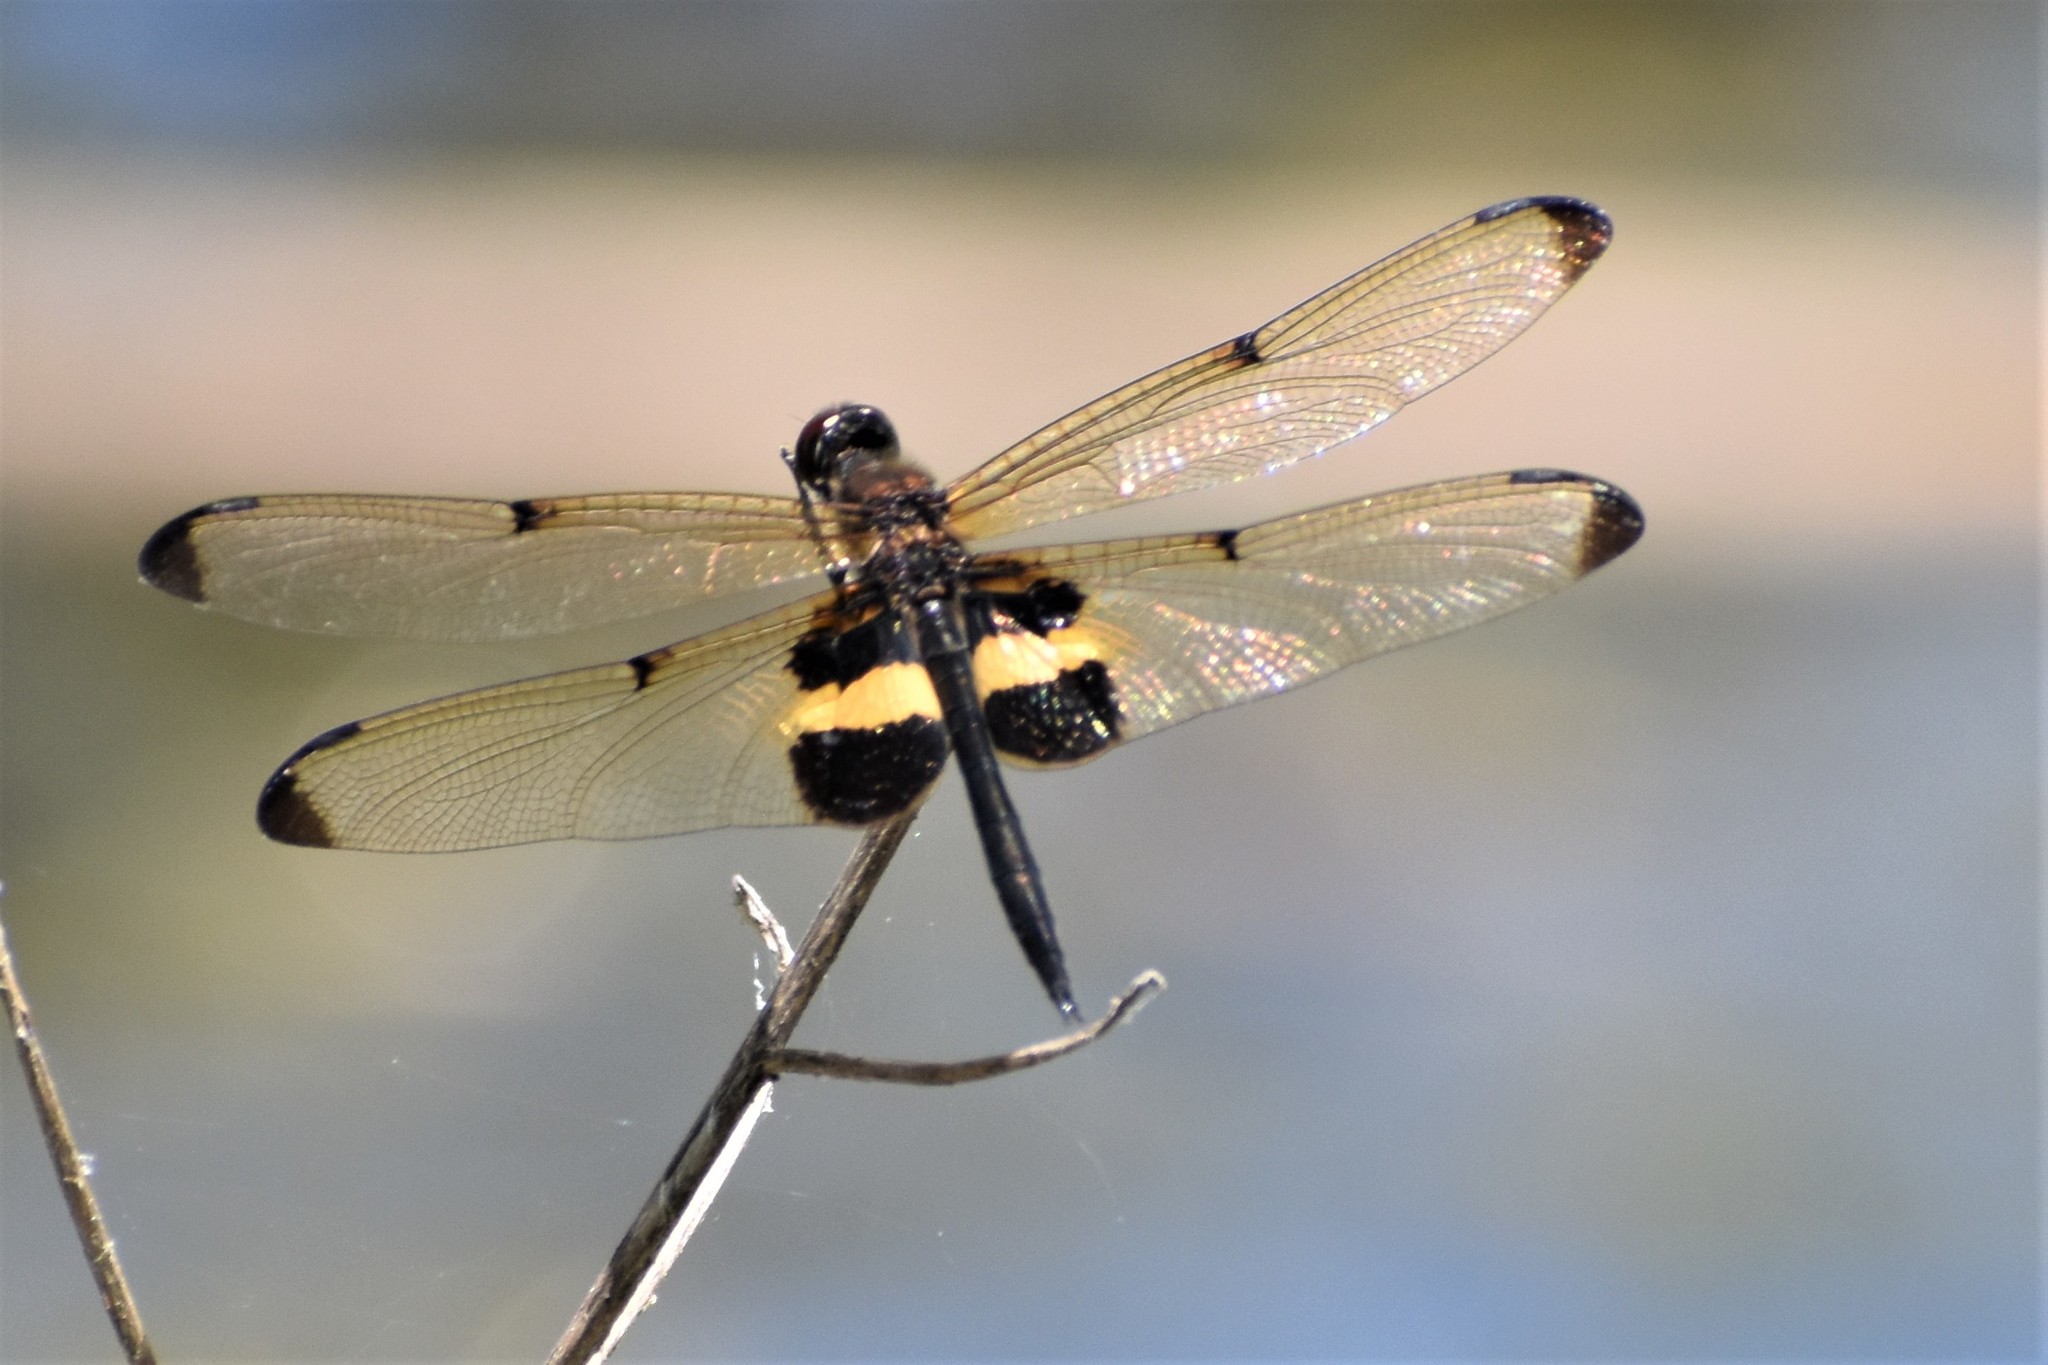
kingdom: Animalia
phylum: Arthropoda
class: Insecta
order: Odonata
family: Libellulidae
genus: Rhyothemis
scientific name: Rhyothemis phyllis
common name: Yellow-barred flutterer
